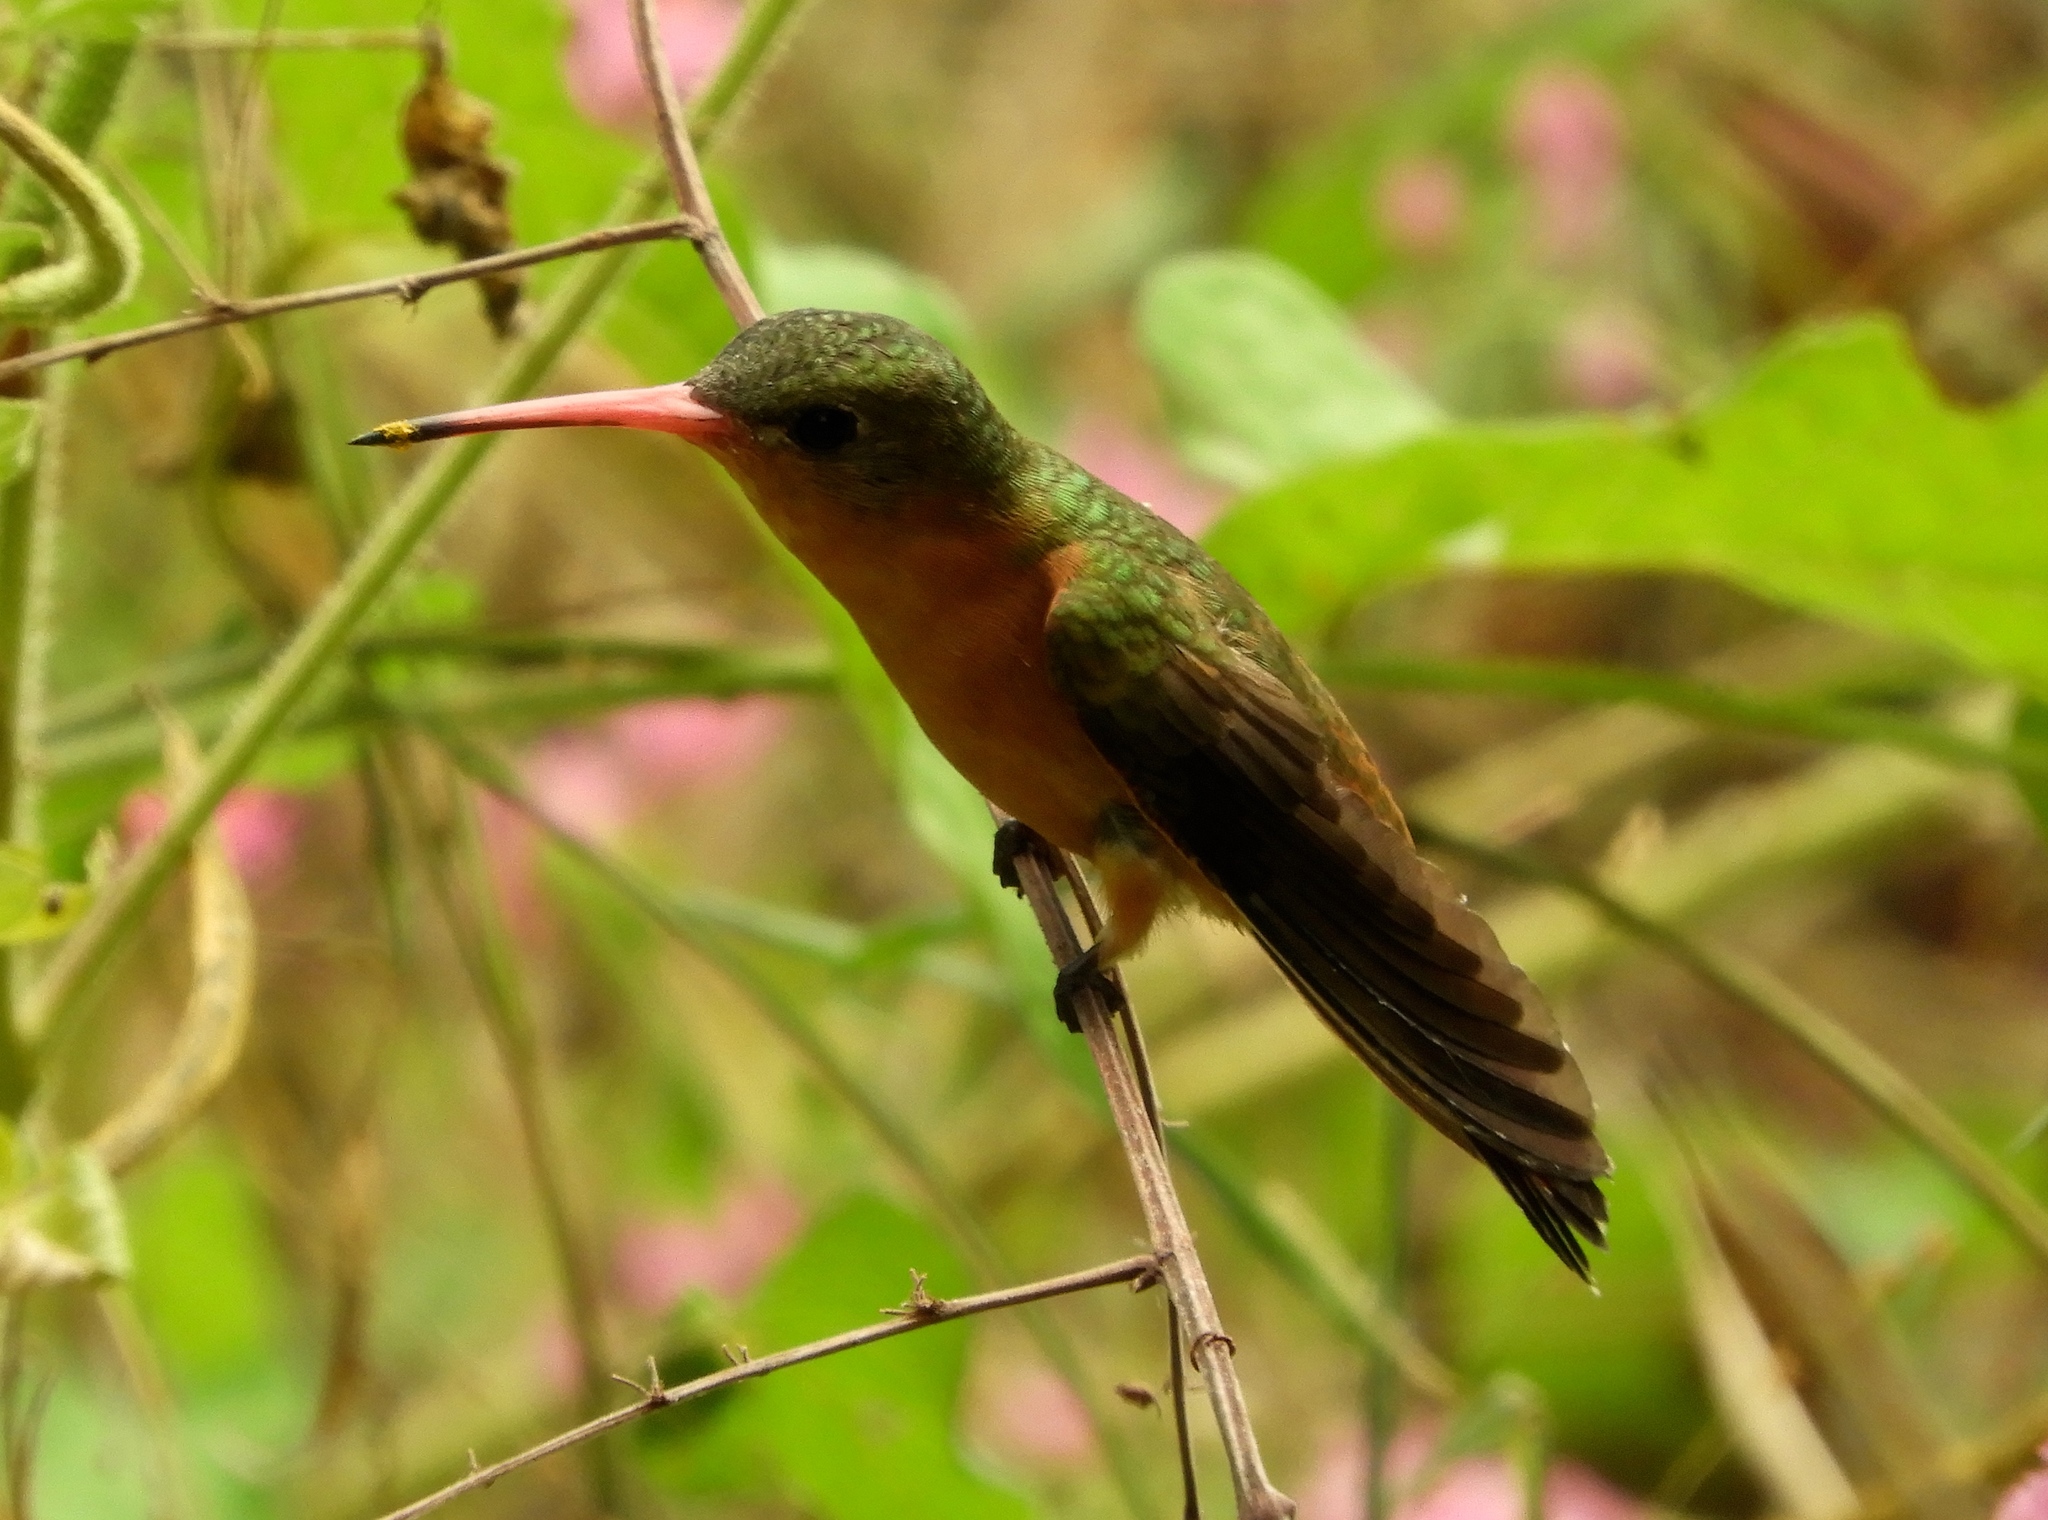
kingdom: Animalia
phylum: Chordata
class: Aves
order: Apodiformes
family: Trochilidae
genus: Amazilia
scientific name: Amazilia rutila
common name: Cinnamon hummingbird
